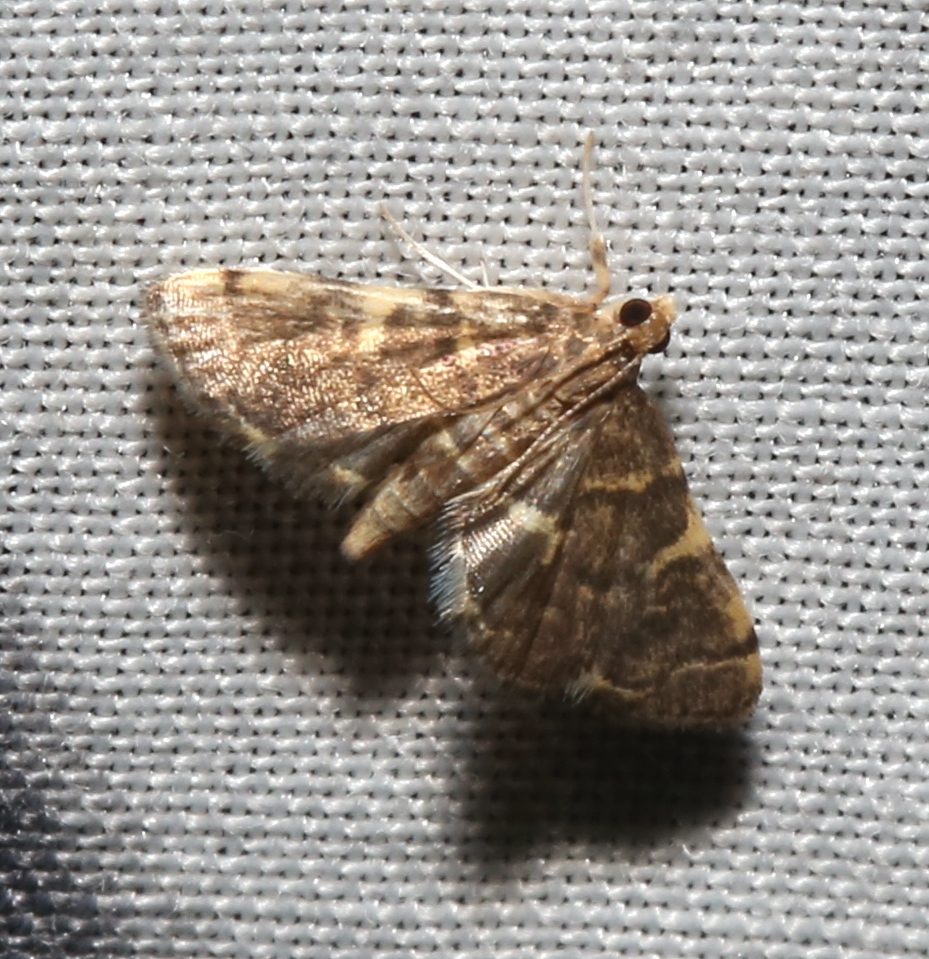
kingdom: Animalia
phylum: Arthropoda
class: Insecta
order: Lepidoptera
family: Crambidae
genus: Anageshna
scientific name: Anageshna primordialis
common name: Yellow-spotted webworm moth
